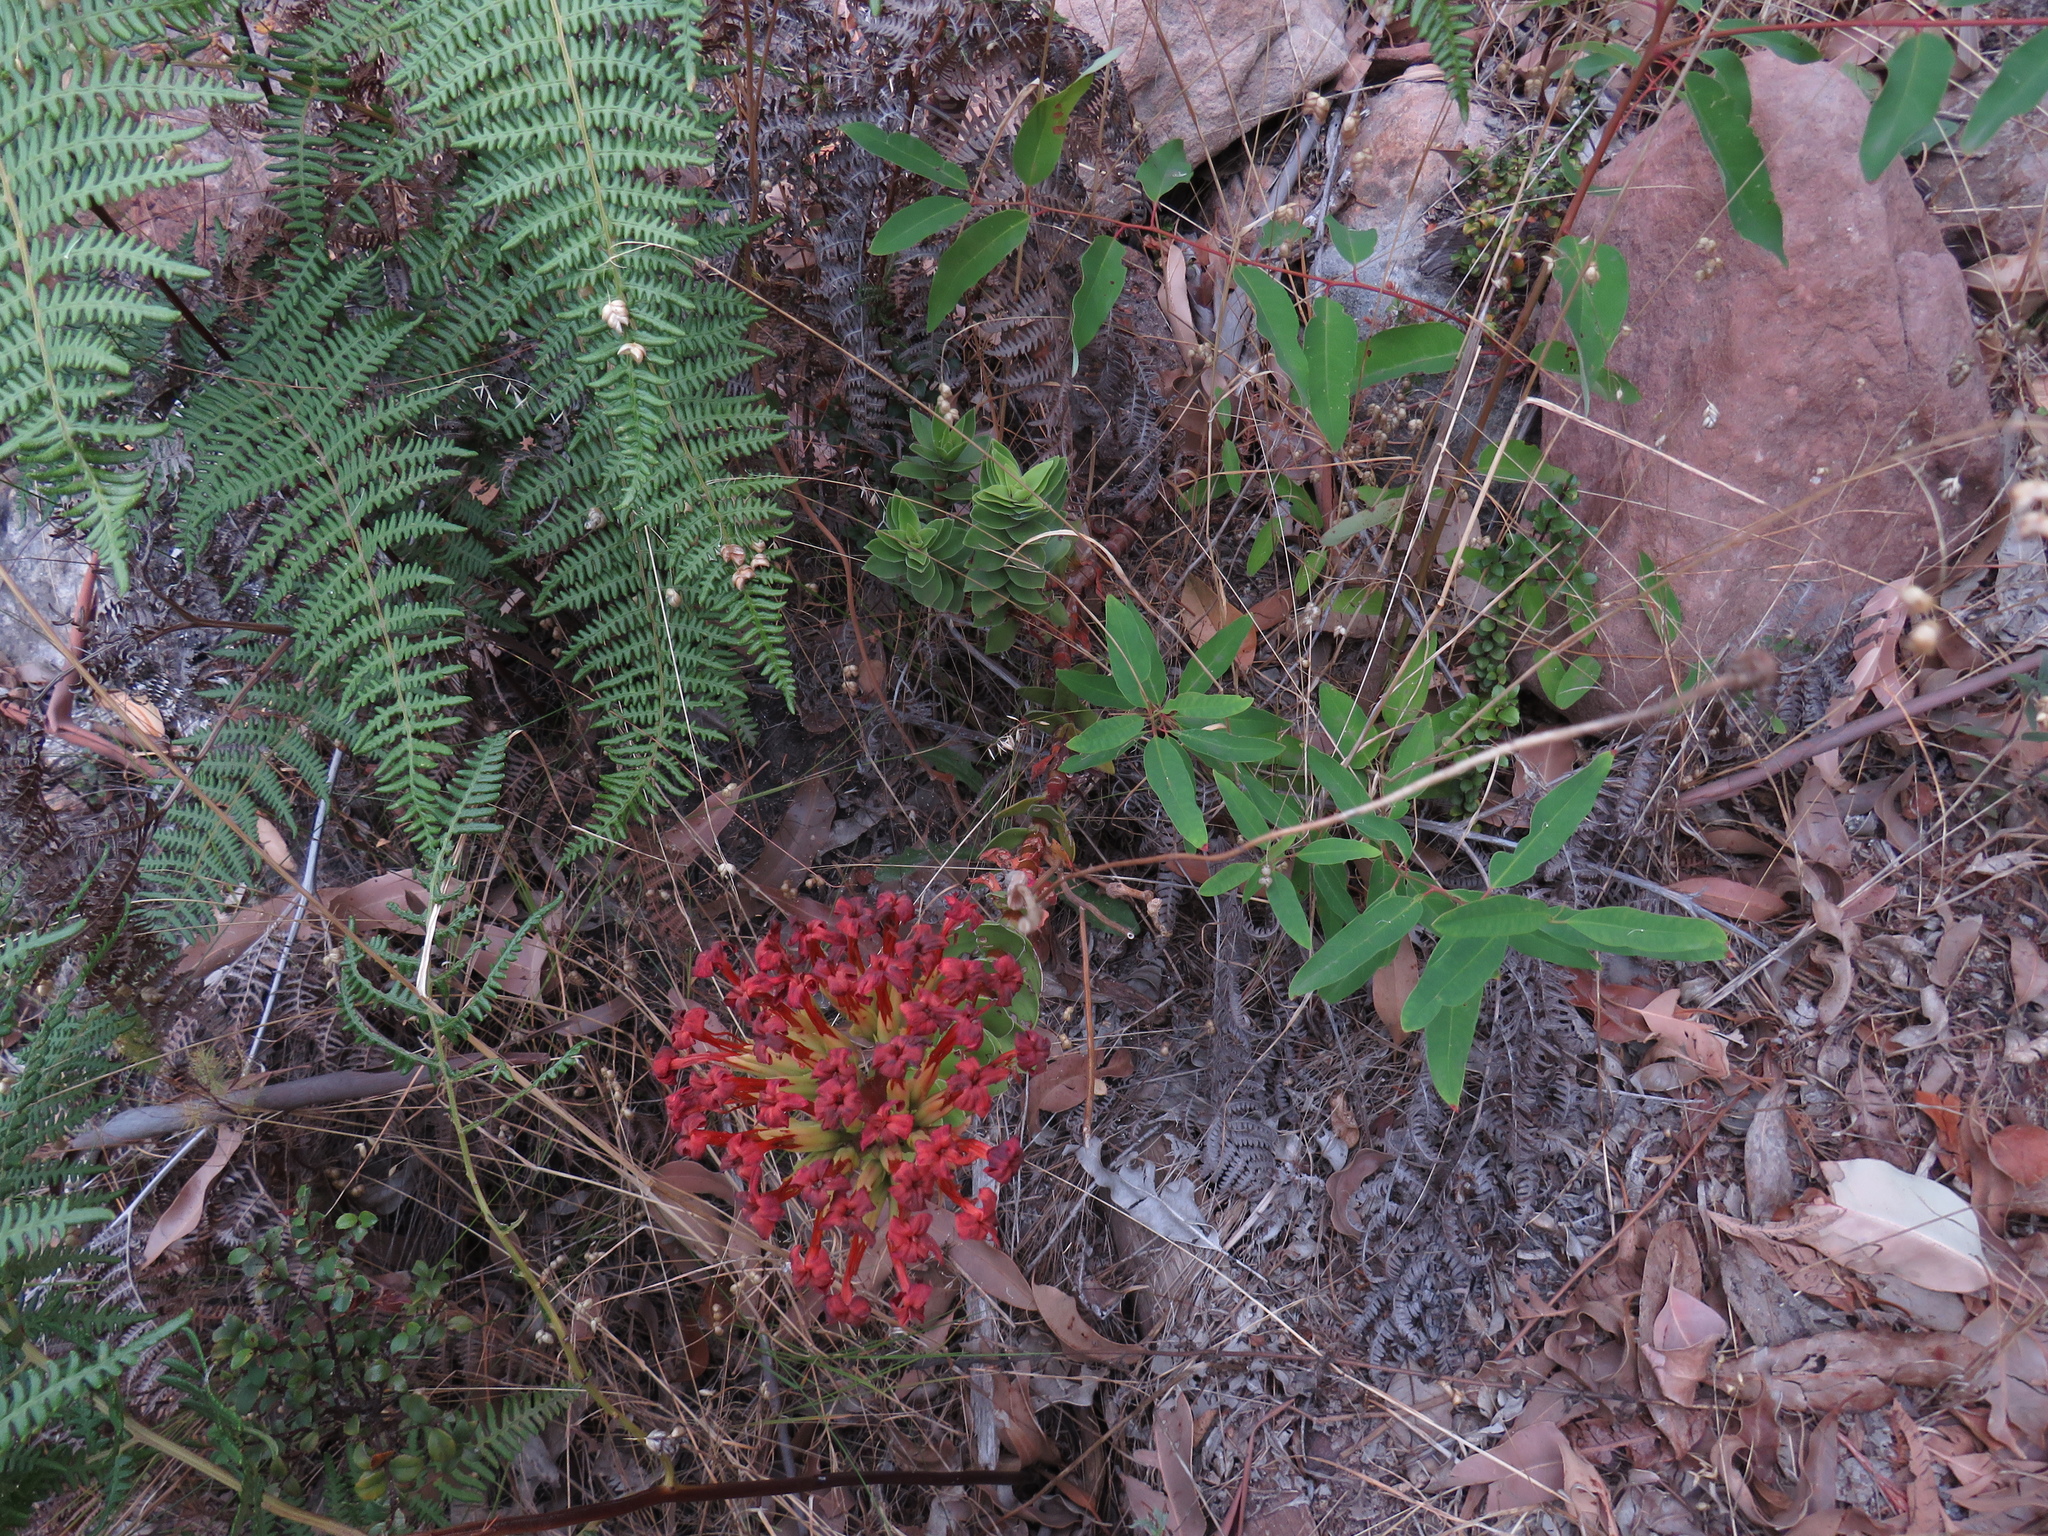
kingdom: Plantae
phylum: Tracheophyta
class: Magnoliopsida
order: Saxifragales
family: Crassulaceae
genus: Crassula
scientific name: Crassula coccinea
